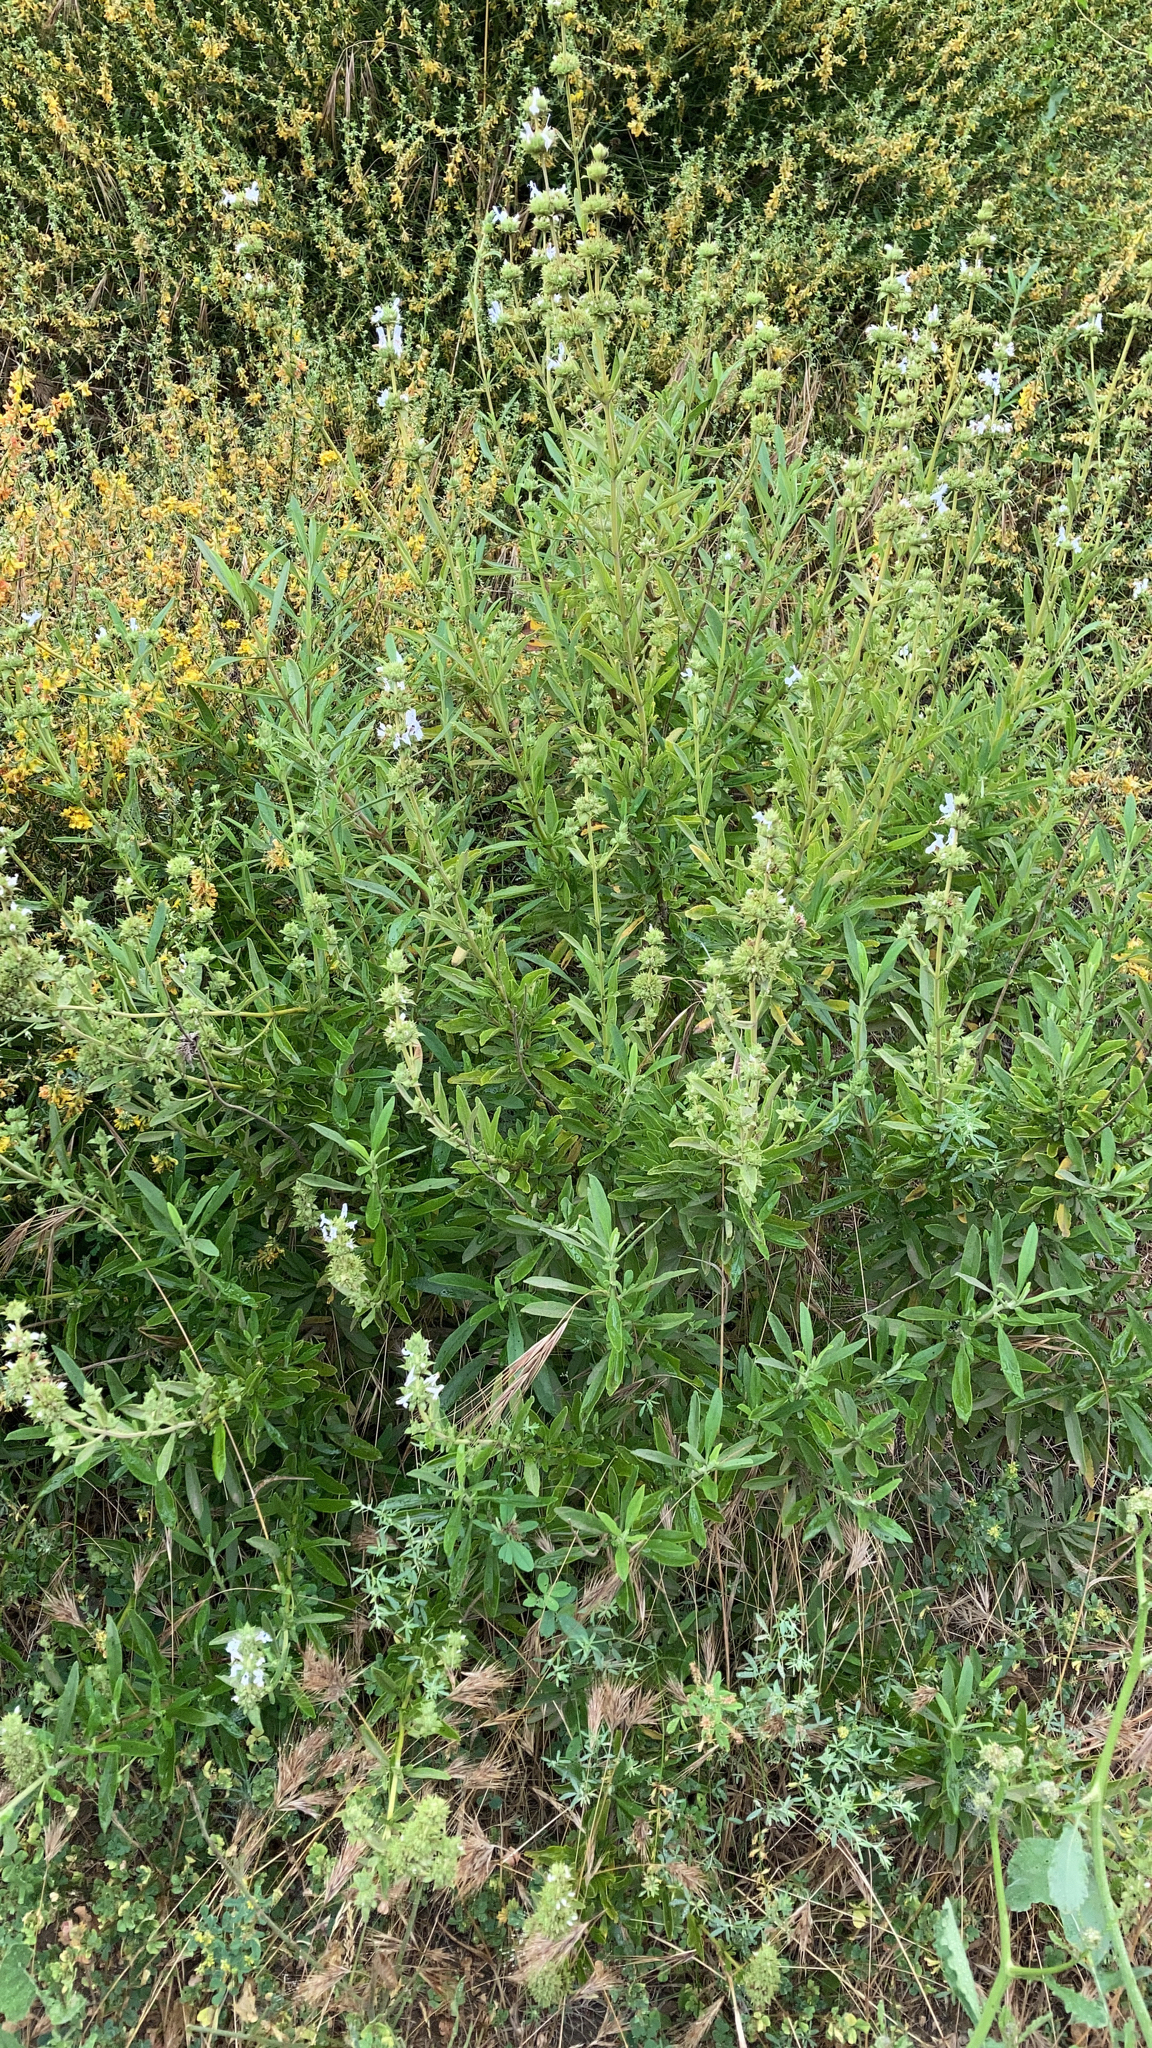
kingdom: Plantae
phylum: Tracheophyta
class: Magnoliopsida
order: Lamiales
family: Lamiaceae
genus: Salvia
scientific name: Salvia mellifera
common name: Black sage
